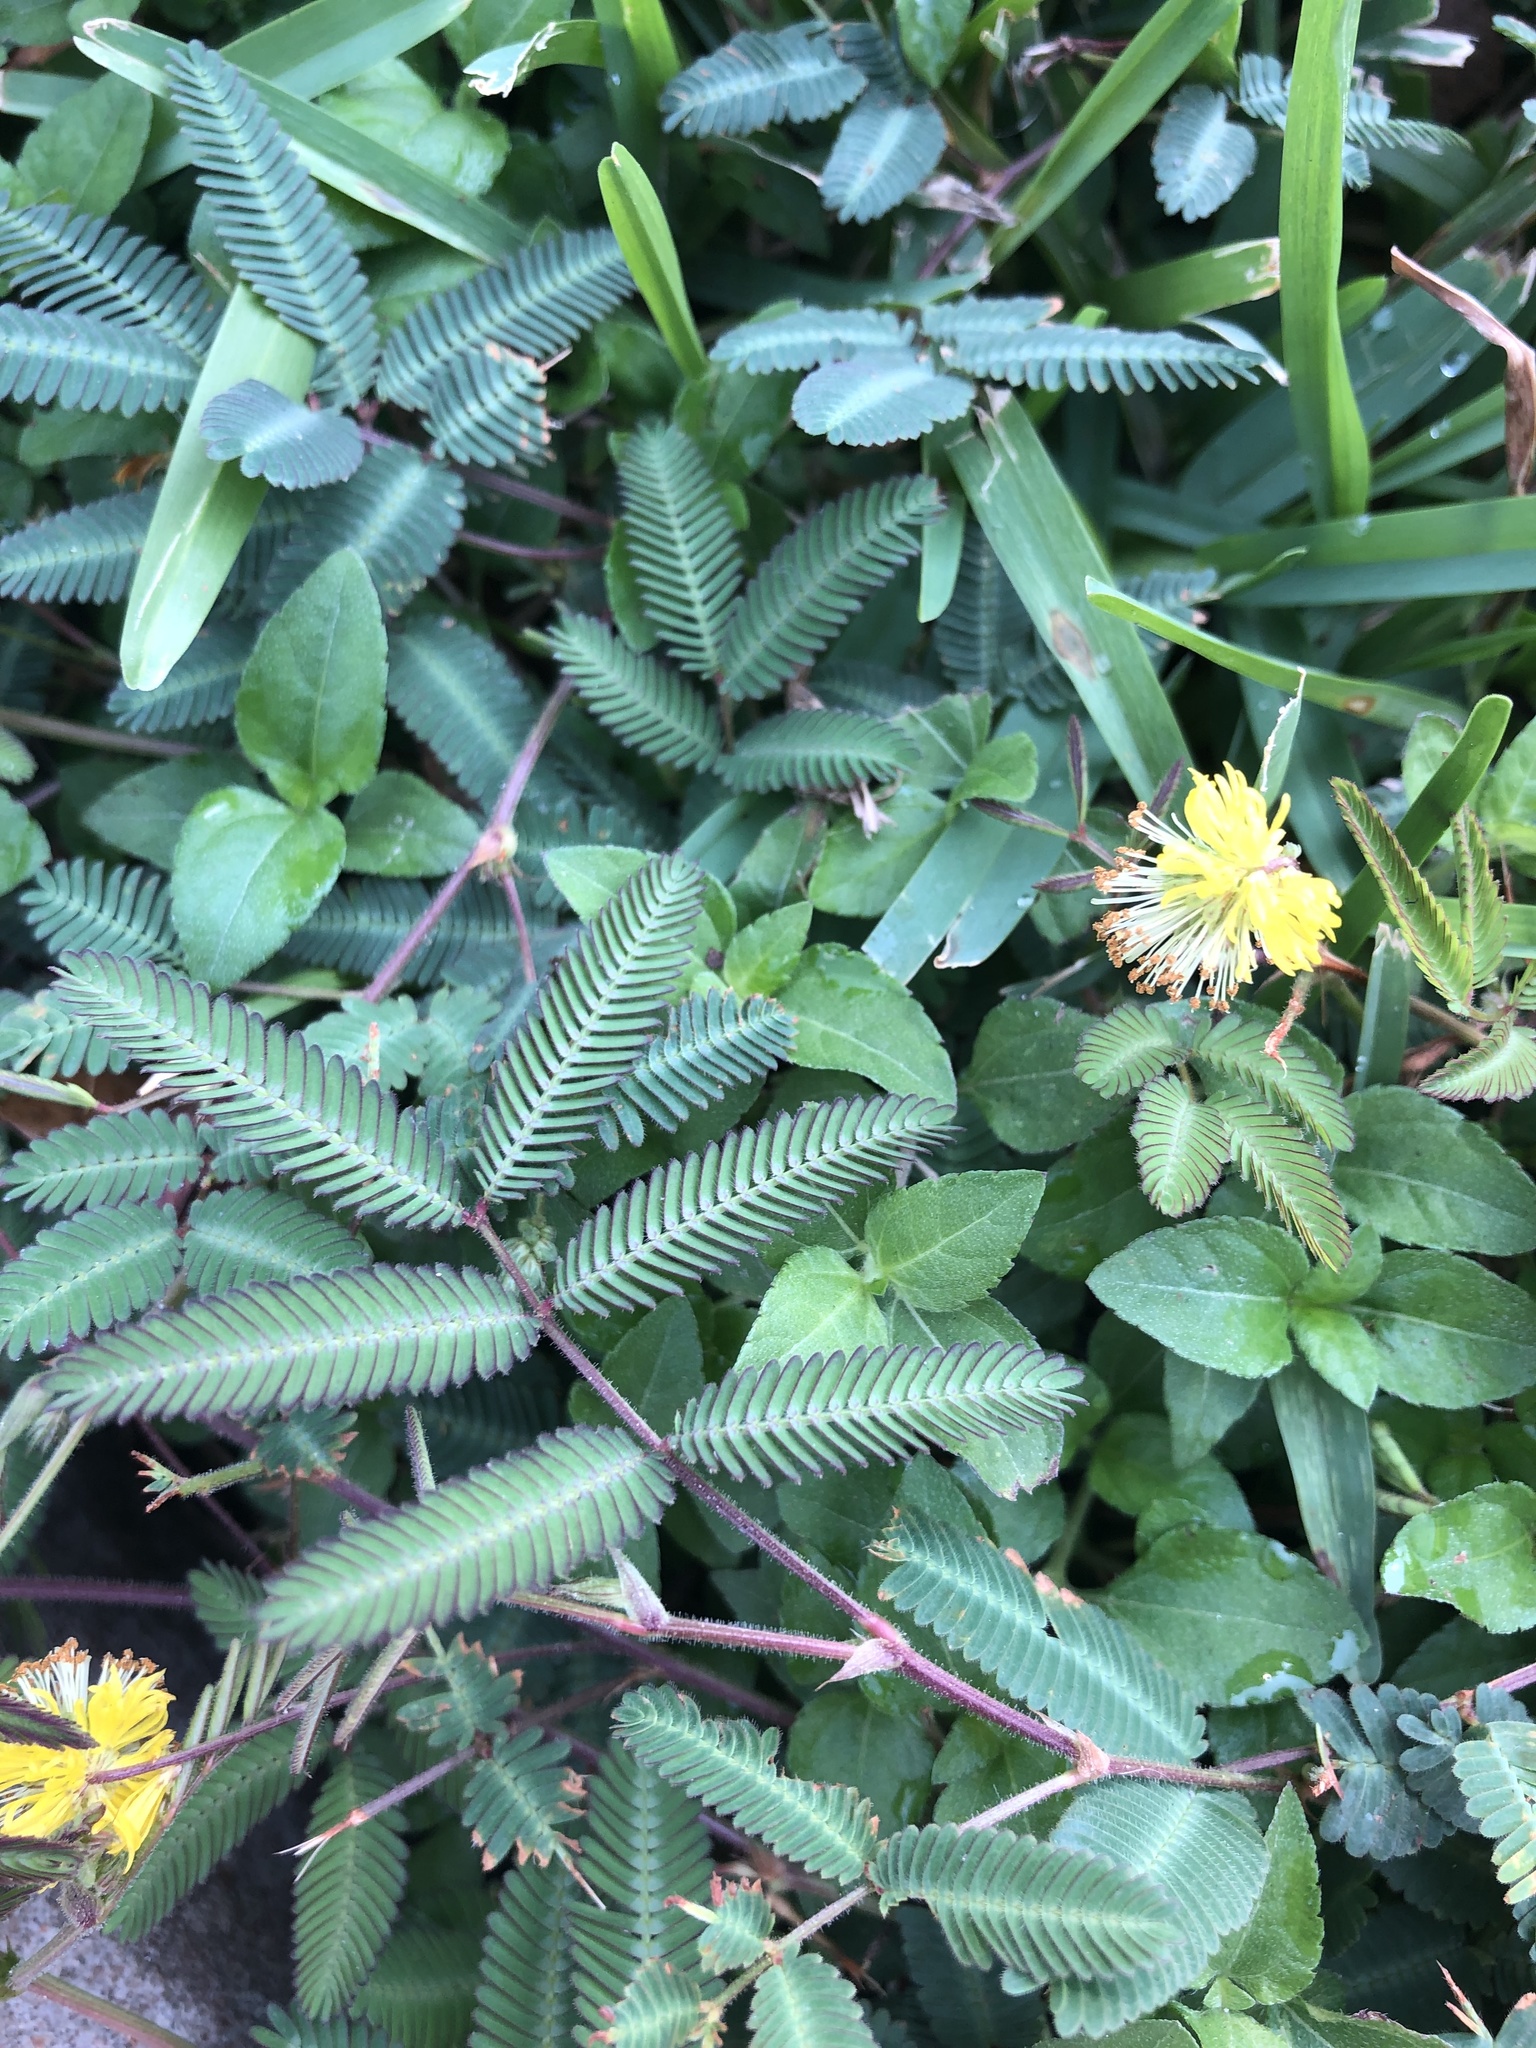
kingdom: Plantae
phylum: Tracheophyta
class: Magnoliopsida
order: Fabales
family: Fabaceae
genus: Neptunia
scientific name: Neptunia pubescens
